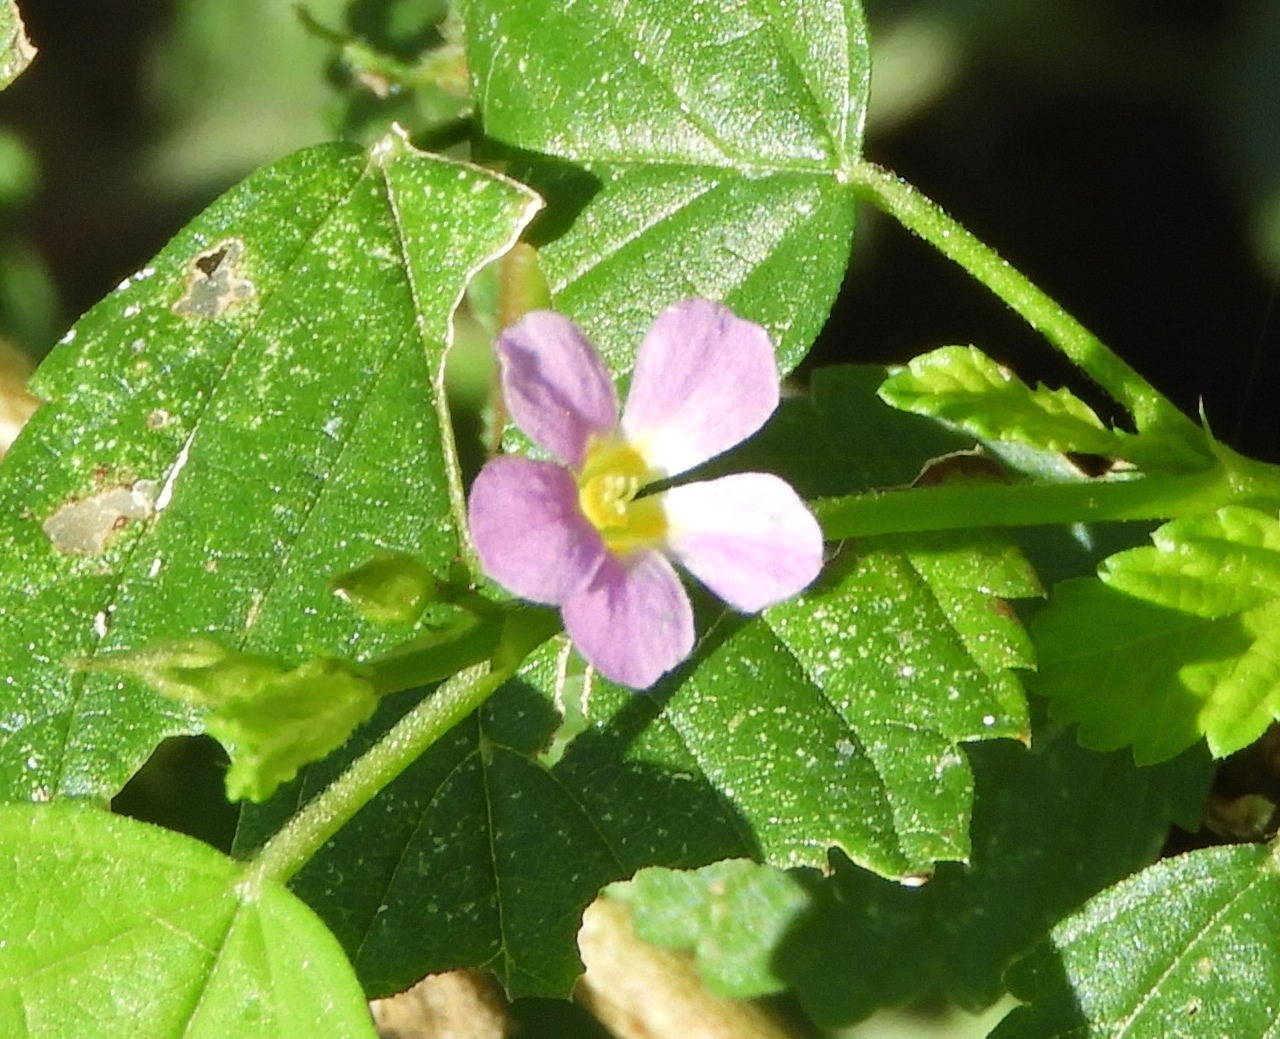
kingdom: Plantae
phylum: Tracheophyta
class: Magnoliopsida
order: Malvales
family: Malvaceae
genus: Melochia
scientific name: Melochia pyramidata
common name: Pyramidflower
